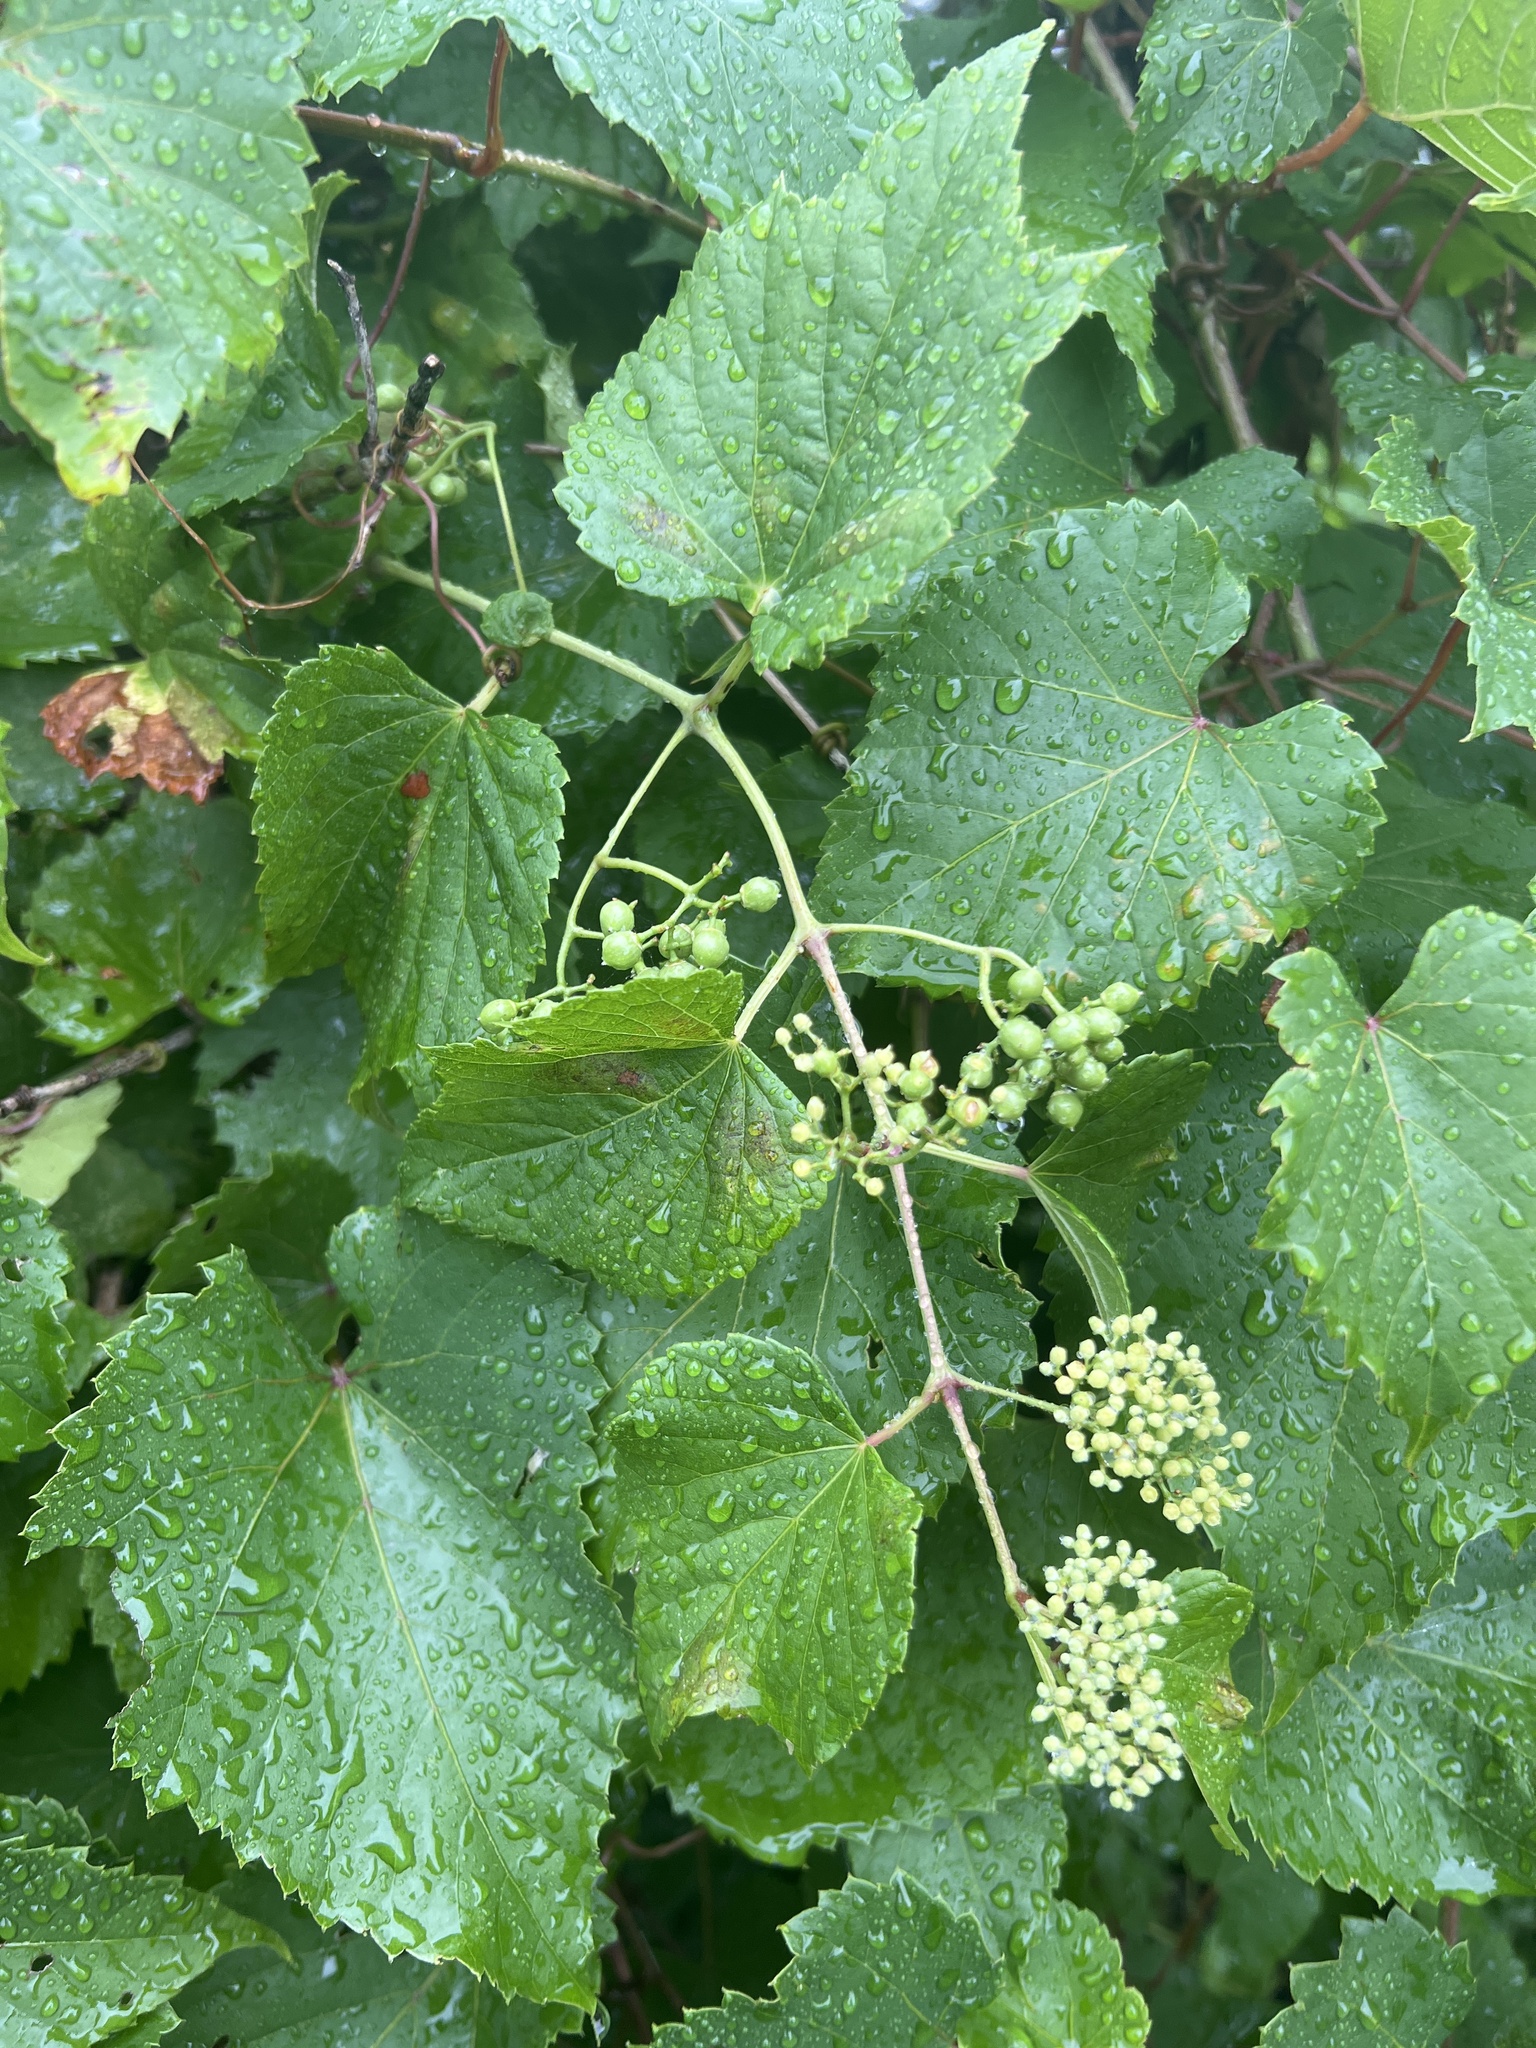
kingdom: Plantae
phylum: Tracheophyta
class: Magnoliopsida
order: Vitales
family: Vitaceae
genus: Ampelopsis
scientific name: Ampelopsis glandulosa
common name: Amur peppervine
